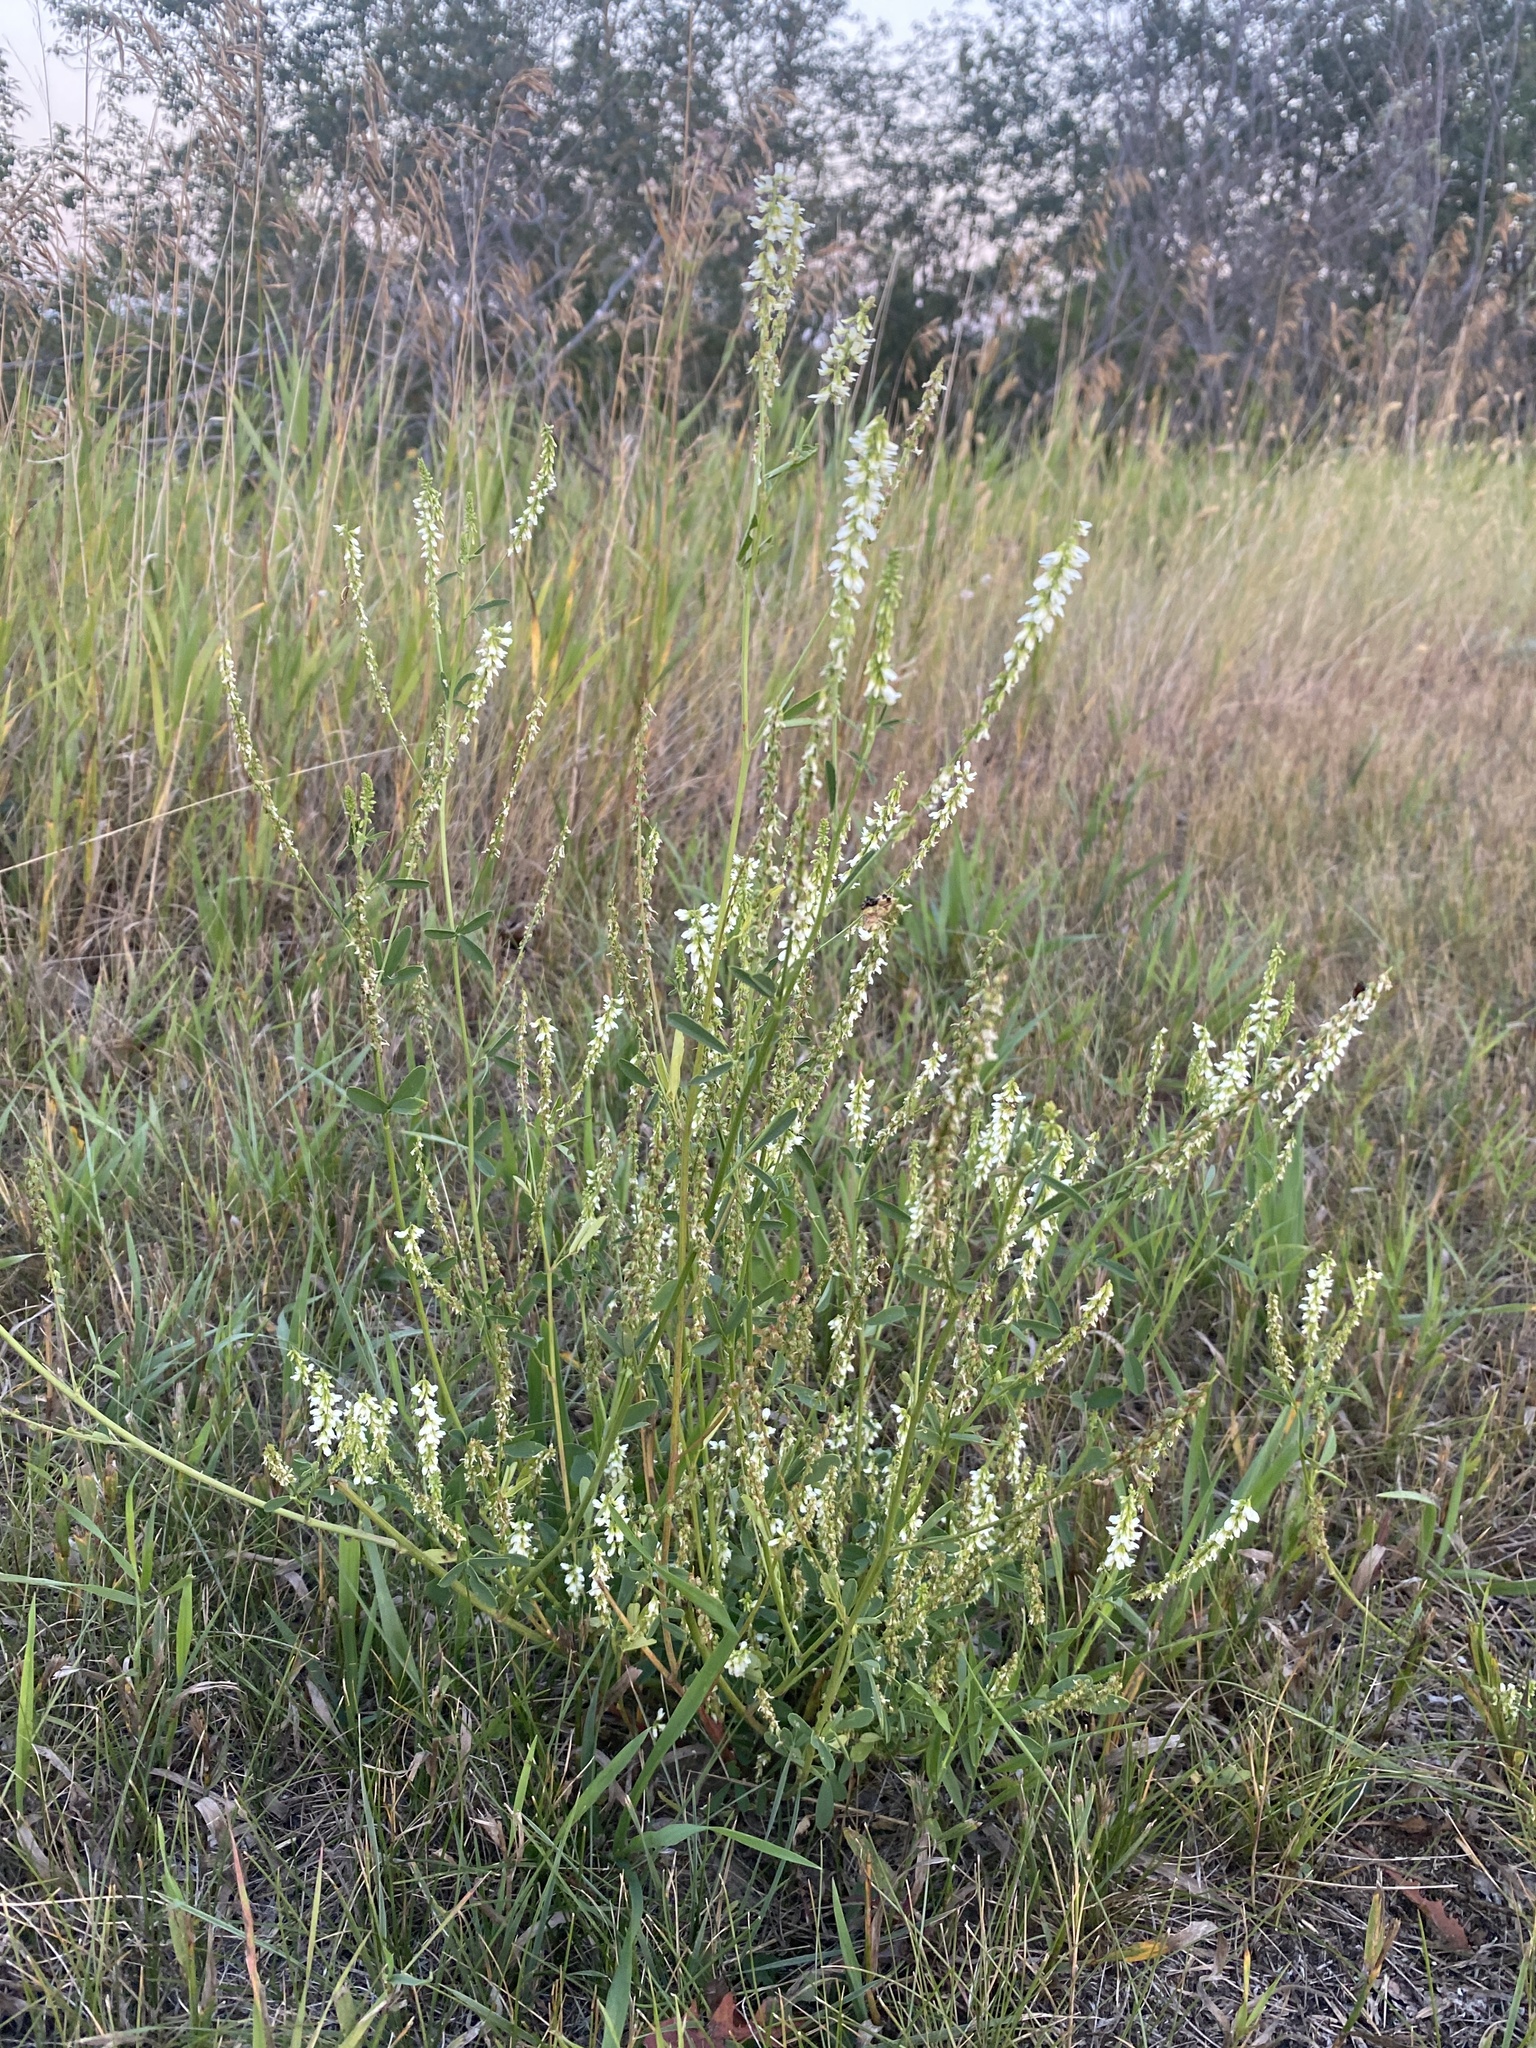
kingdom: Plantae
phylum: Tracheophyta
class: Magnoliopsida
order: Fabales
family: Fabaceae
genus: Melilotus
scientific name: Melilotus albus
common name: White melilot
